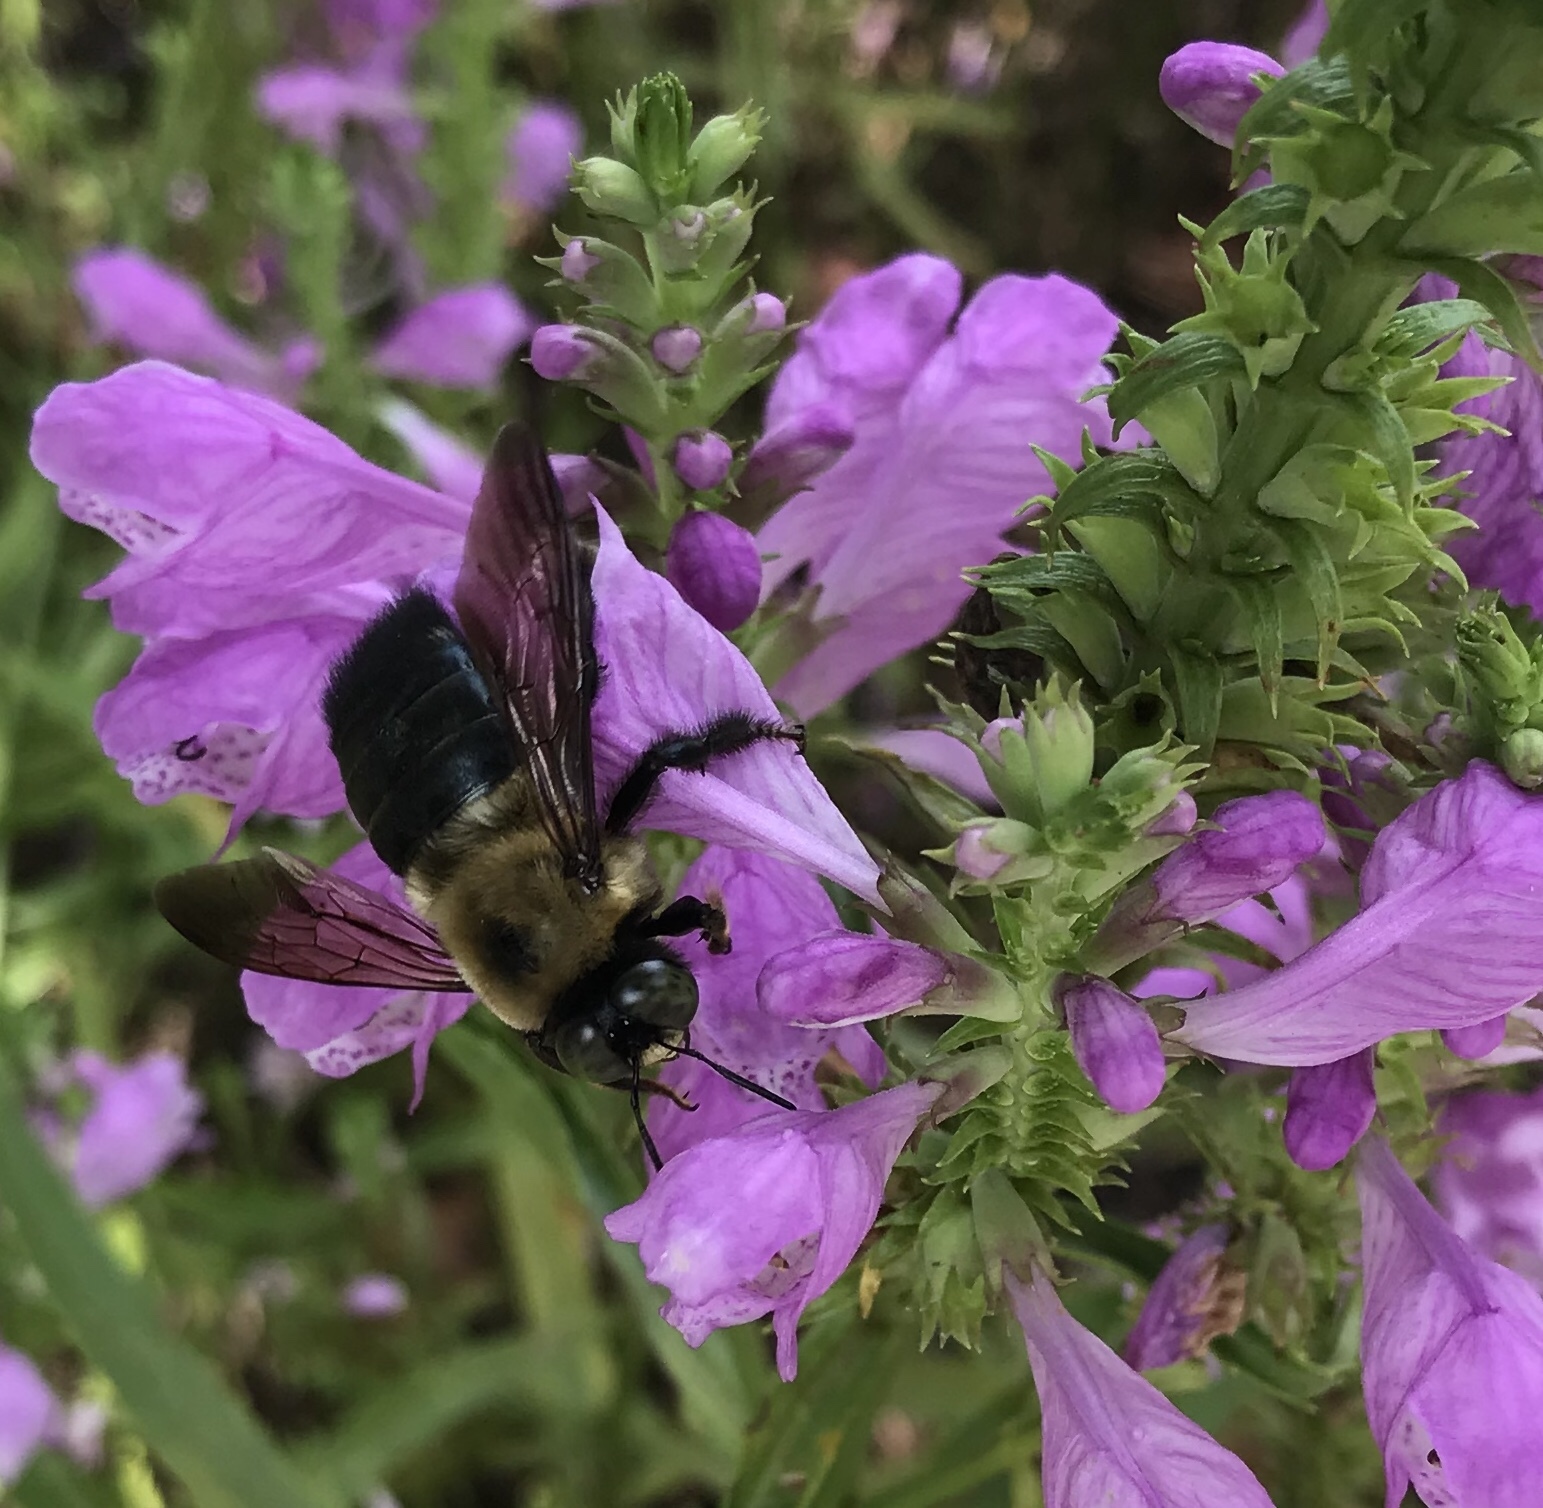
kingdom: Animalia
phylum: Arthropoda
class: Insecta
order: Hymenoptera
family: Apidae
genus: Xylocopa
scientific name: Xylocopa virginica
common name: Carpenter bee
